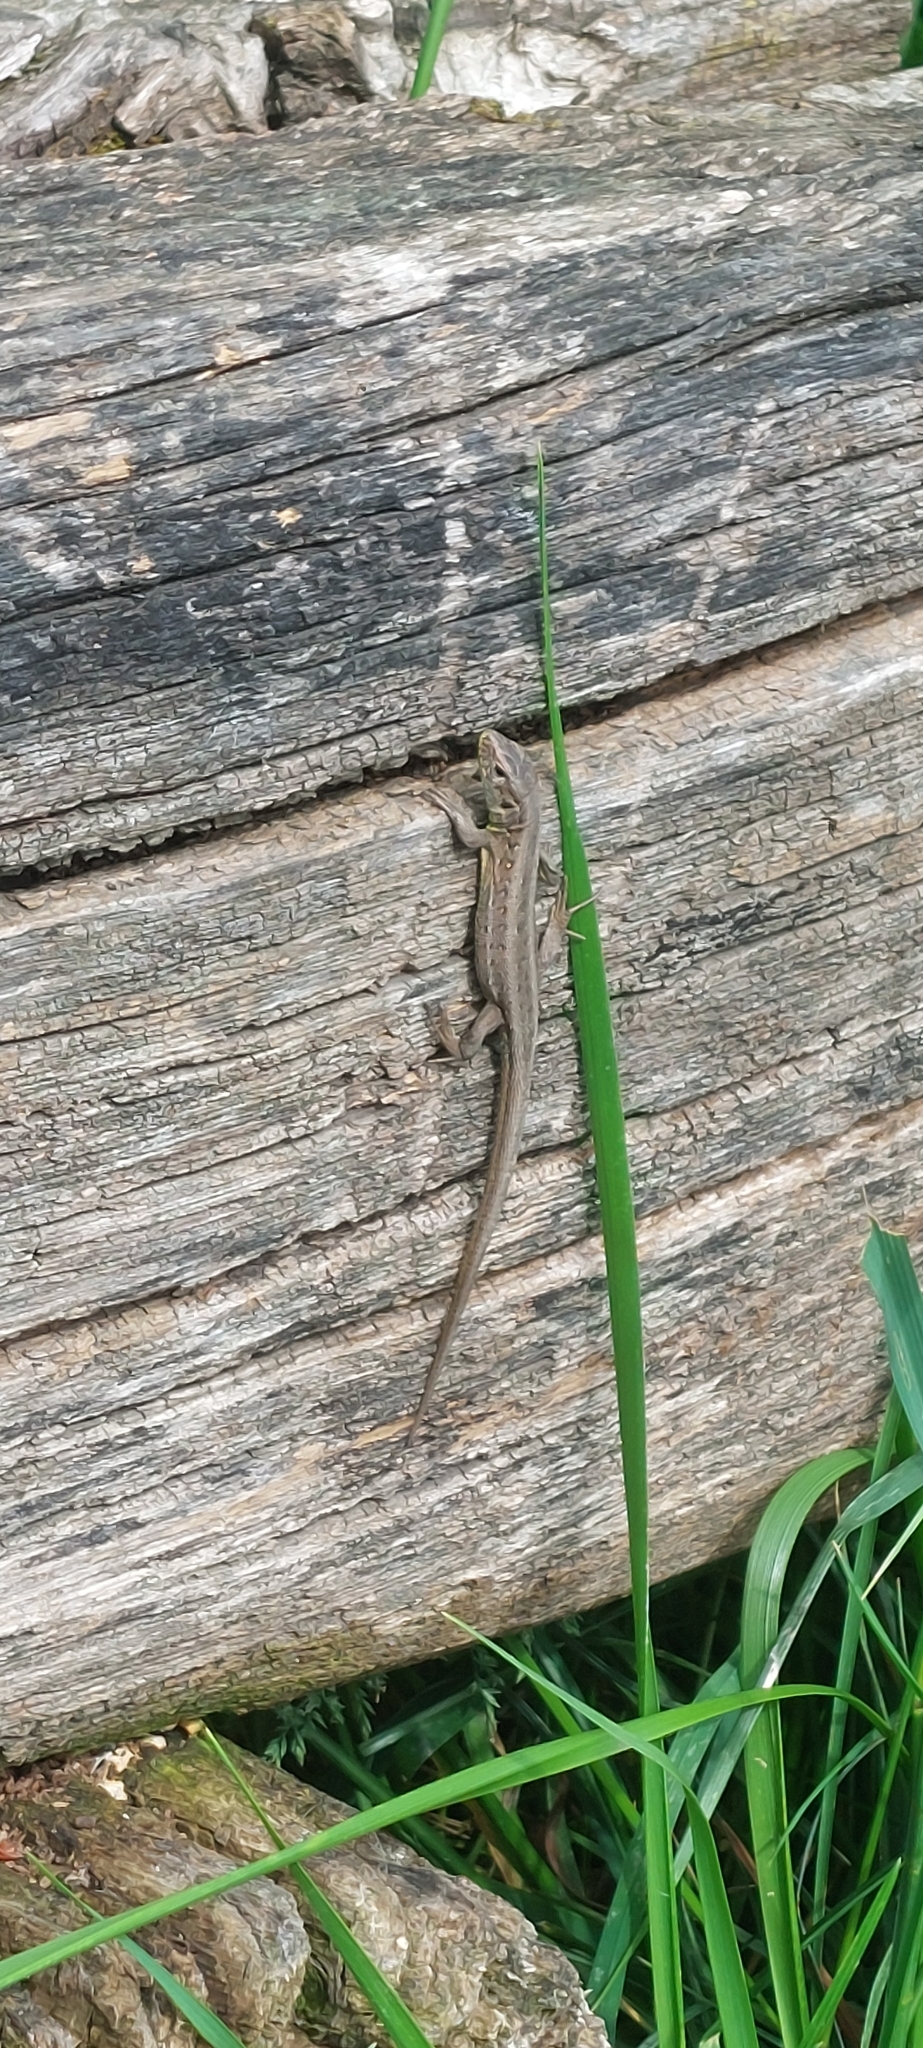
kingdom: Animalia
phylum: Chordata
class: Squamata
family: Lacertidae
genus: Lacerta
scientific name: Lacerta agilis
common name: Sand lizard
